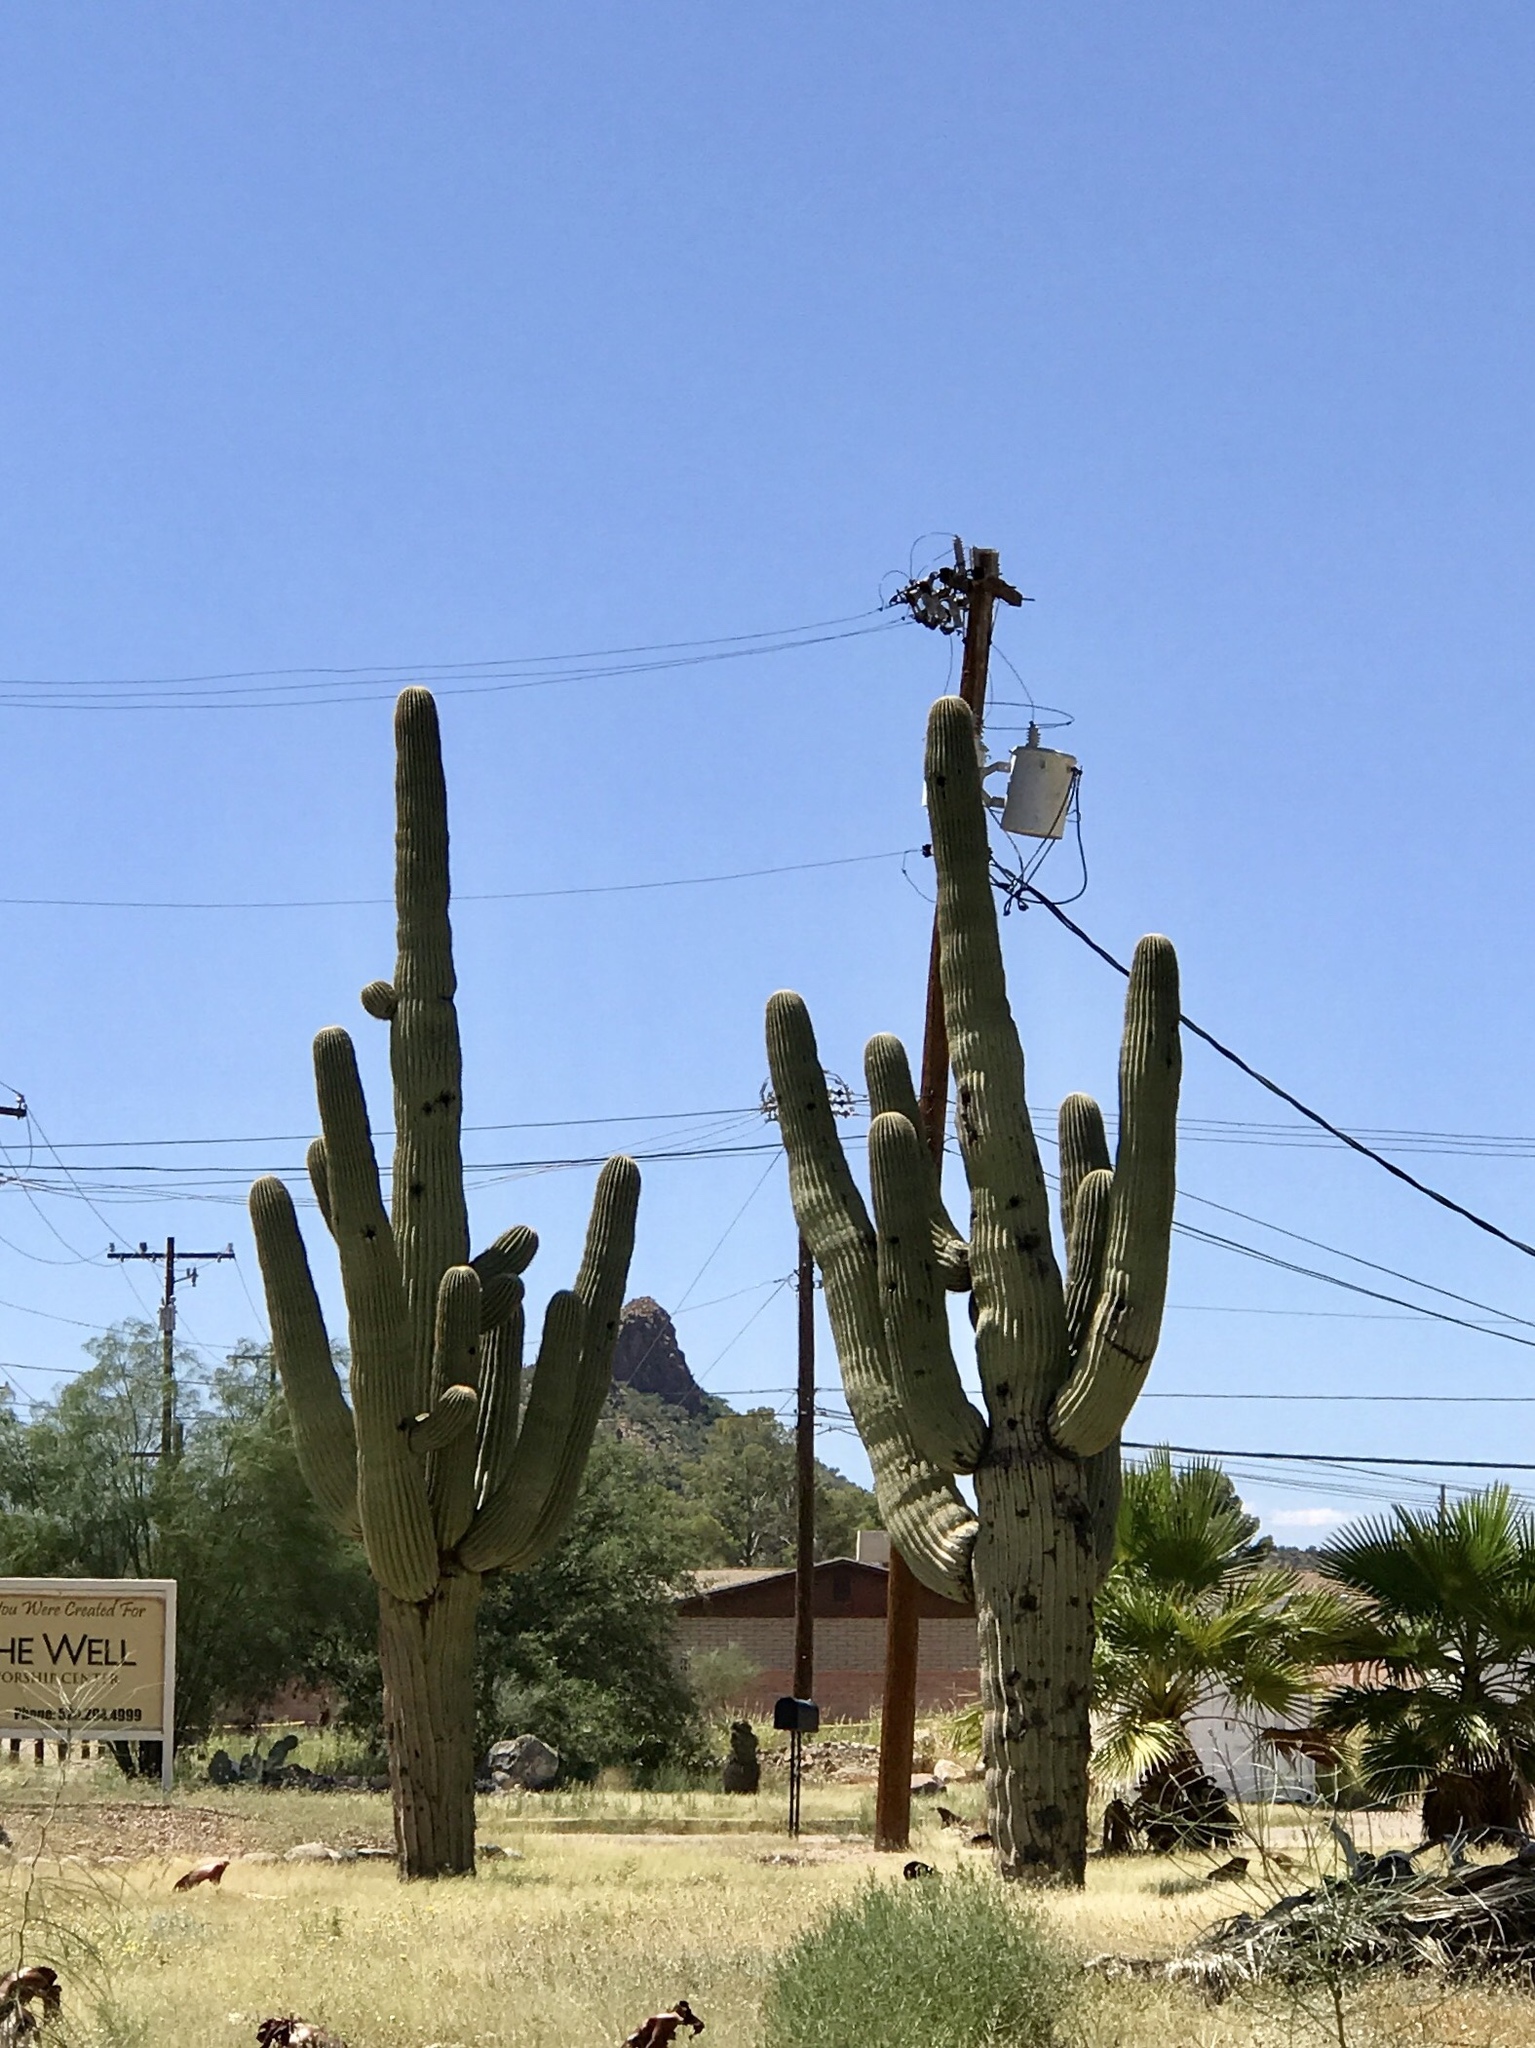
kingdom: Plantae
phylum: Tracheophyta
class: Magnoliopsida
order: Caryophyllales
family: Cactaceae
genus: Carnegiea
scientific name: Carnegiea gigantea
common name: Saguaro
